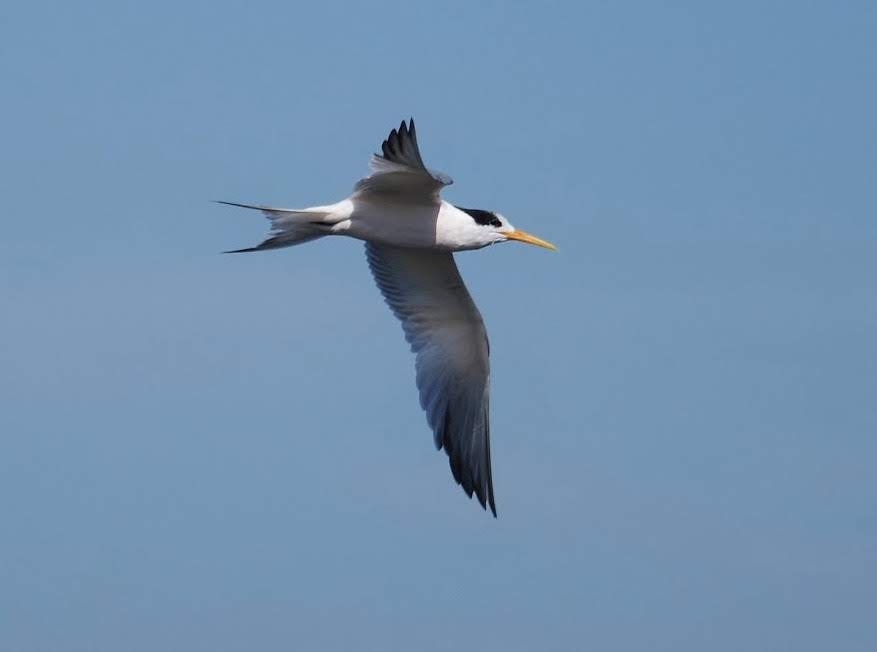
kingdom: Animalia
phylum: Chordata
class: Aves
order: Charadriiformes
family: Laridae
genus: Thalasseus
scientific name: Thalasseus elegans
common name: Elegant tern
